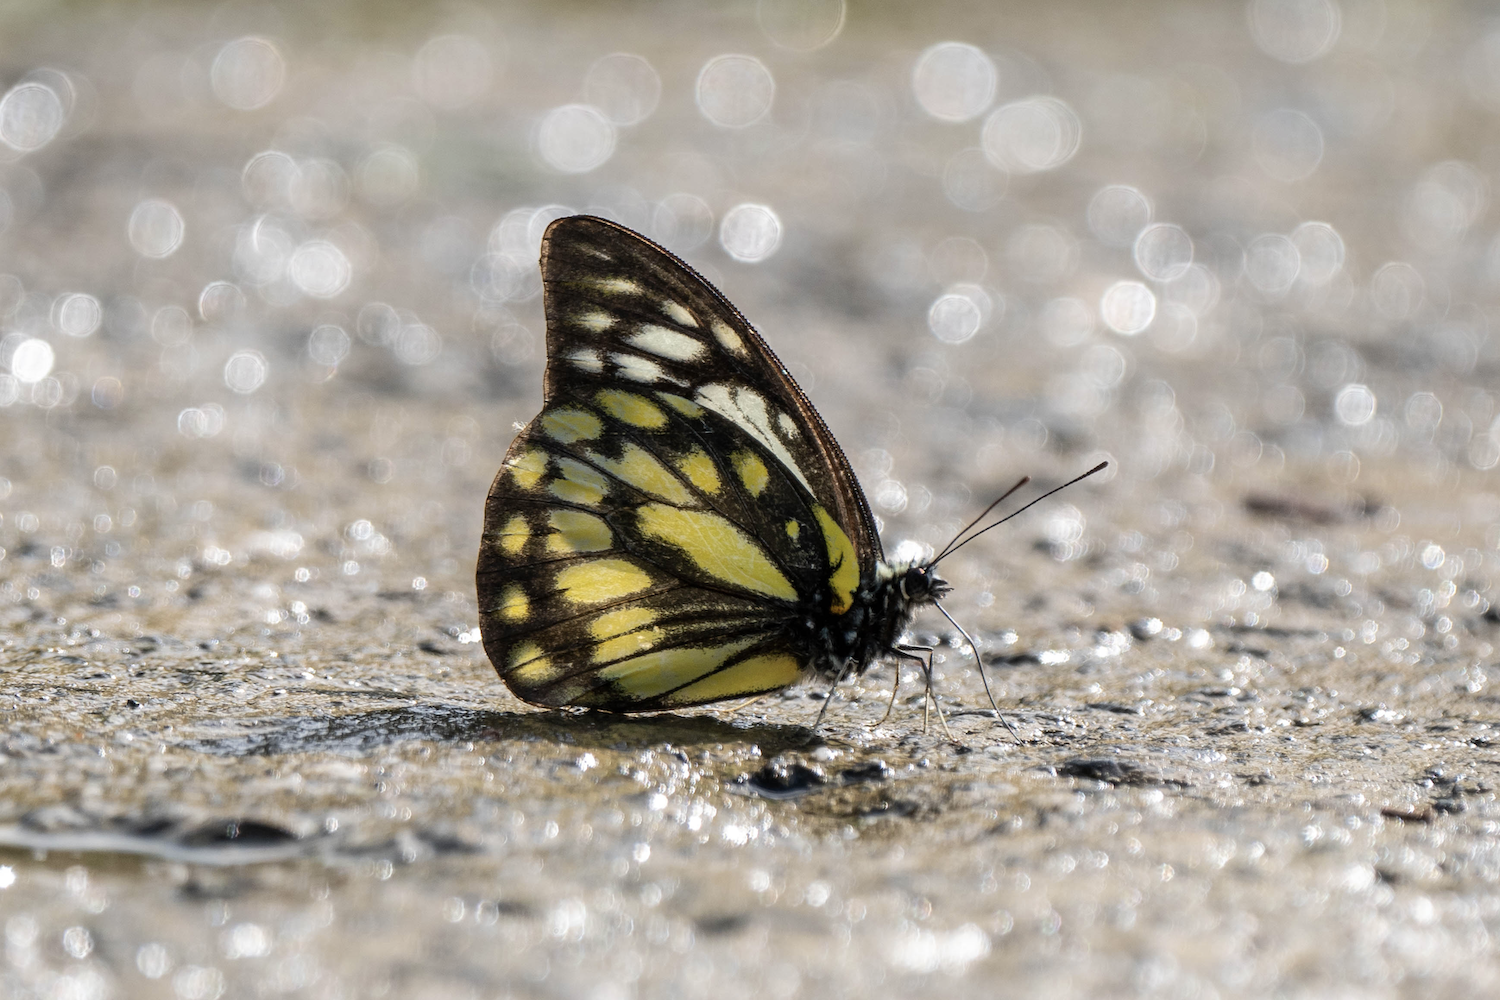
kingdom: Animalia
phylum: Arthropoda
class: Insecta
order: Lepidoptera
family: Pieridae
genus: Prioneris
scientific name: Prioneris thestylis
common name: Spotted sawtooth
